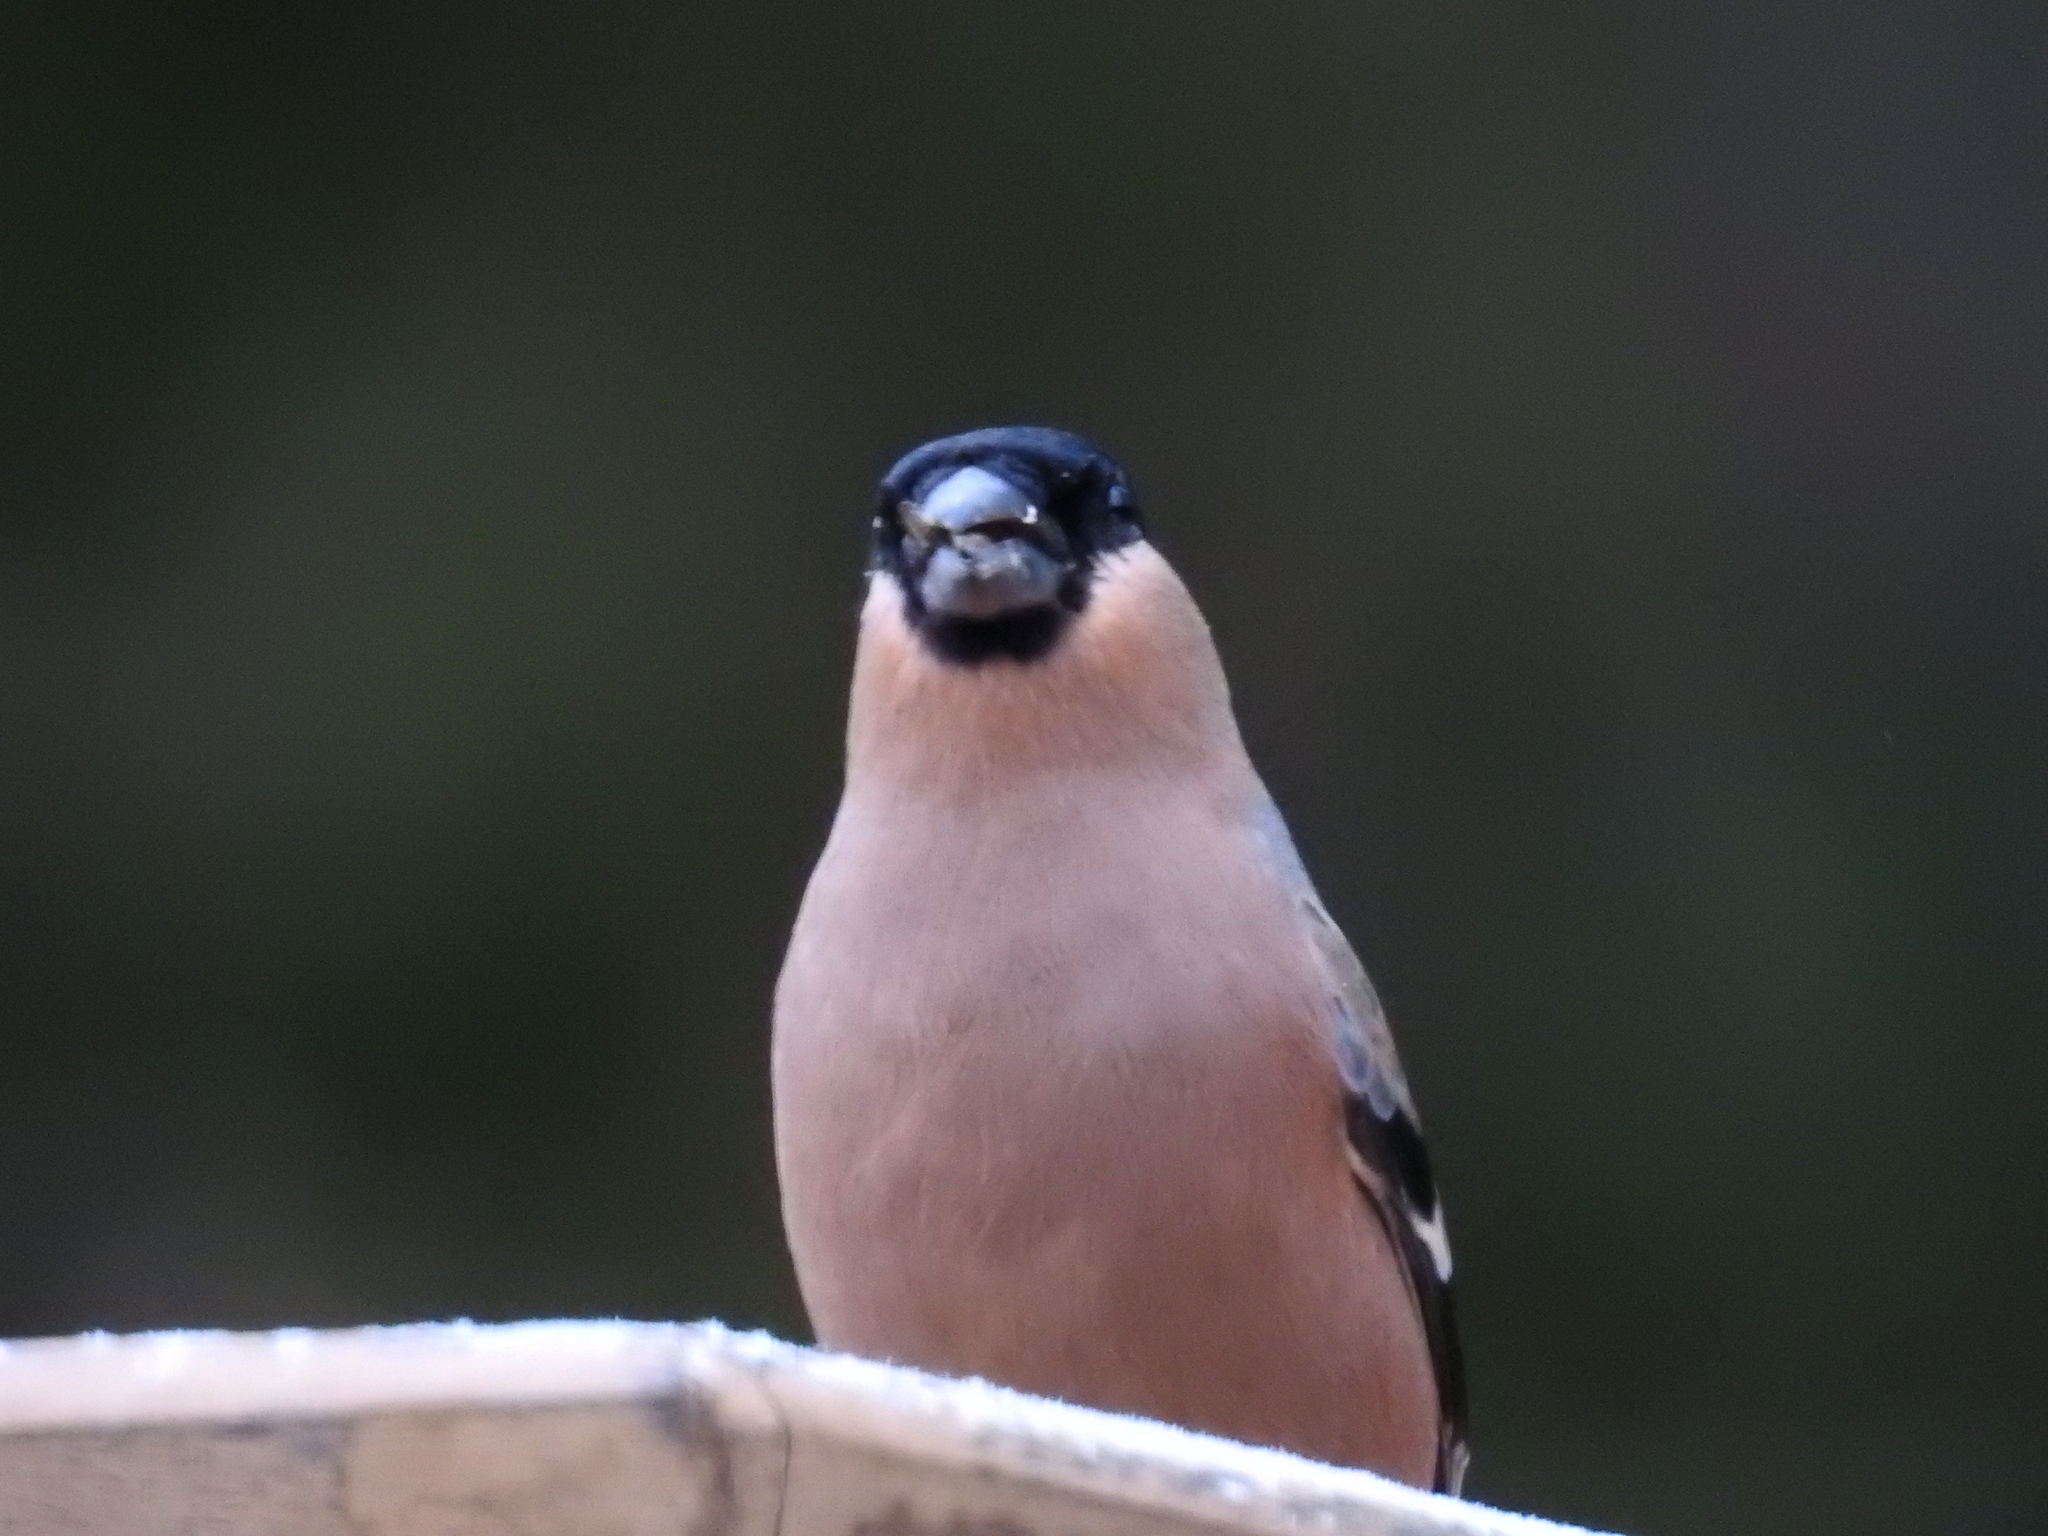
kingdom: Animalia
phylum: Chordata
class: Aves
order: Passeriformes
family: Fringillidae
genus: Pyrrhula
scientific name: Pyrrhula pyrrhula
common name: Eurasian bullfinch
